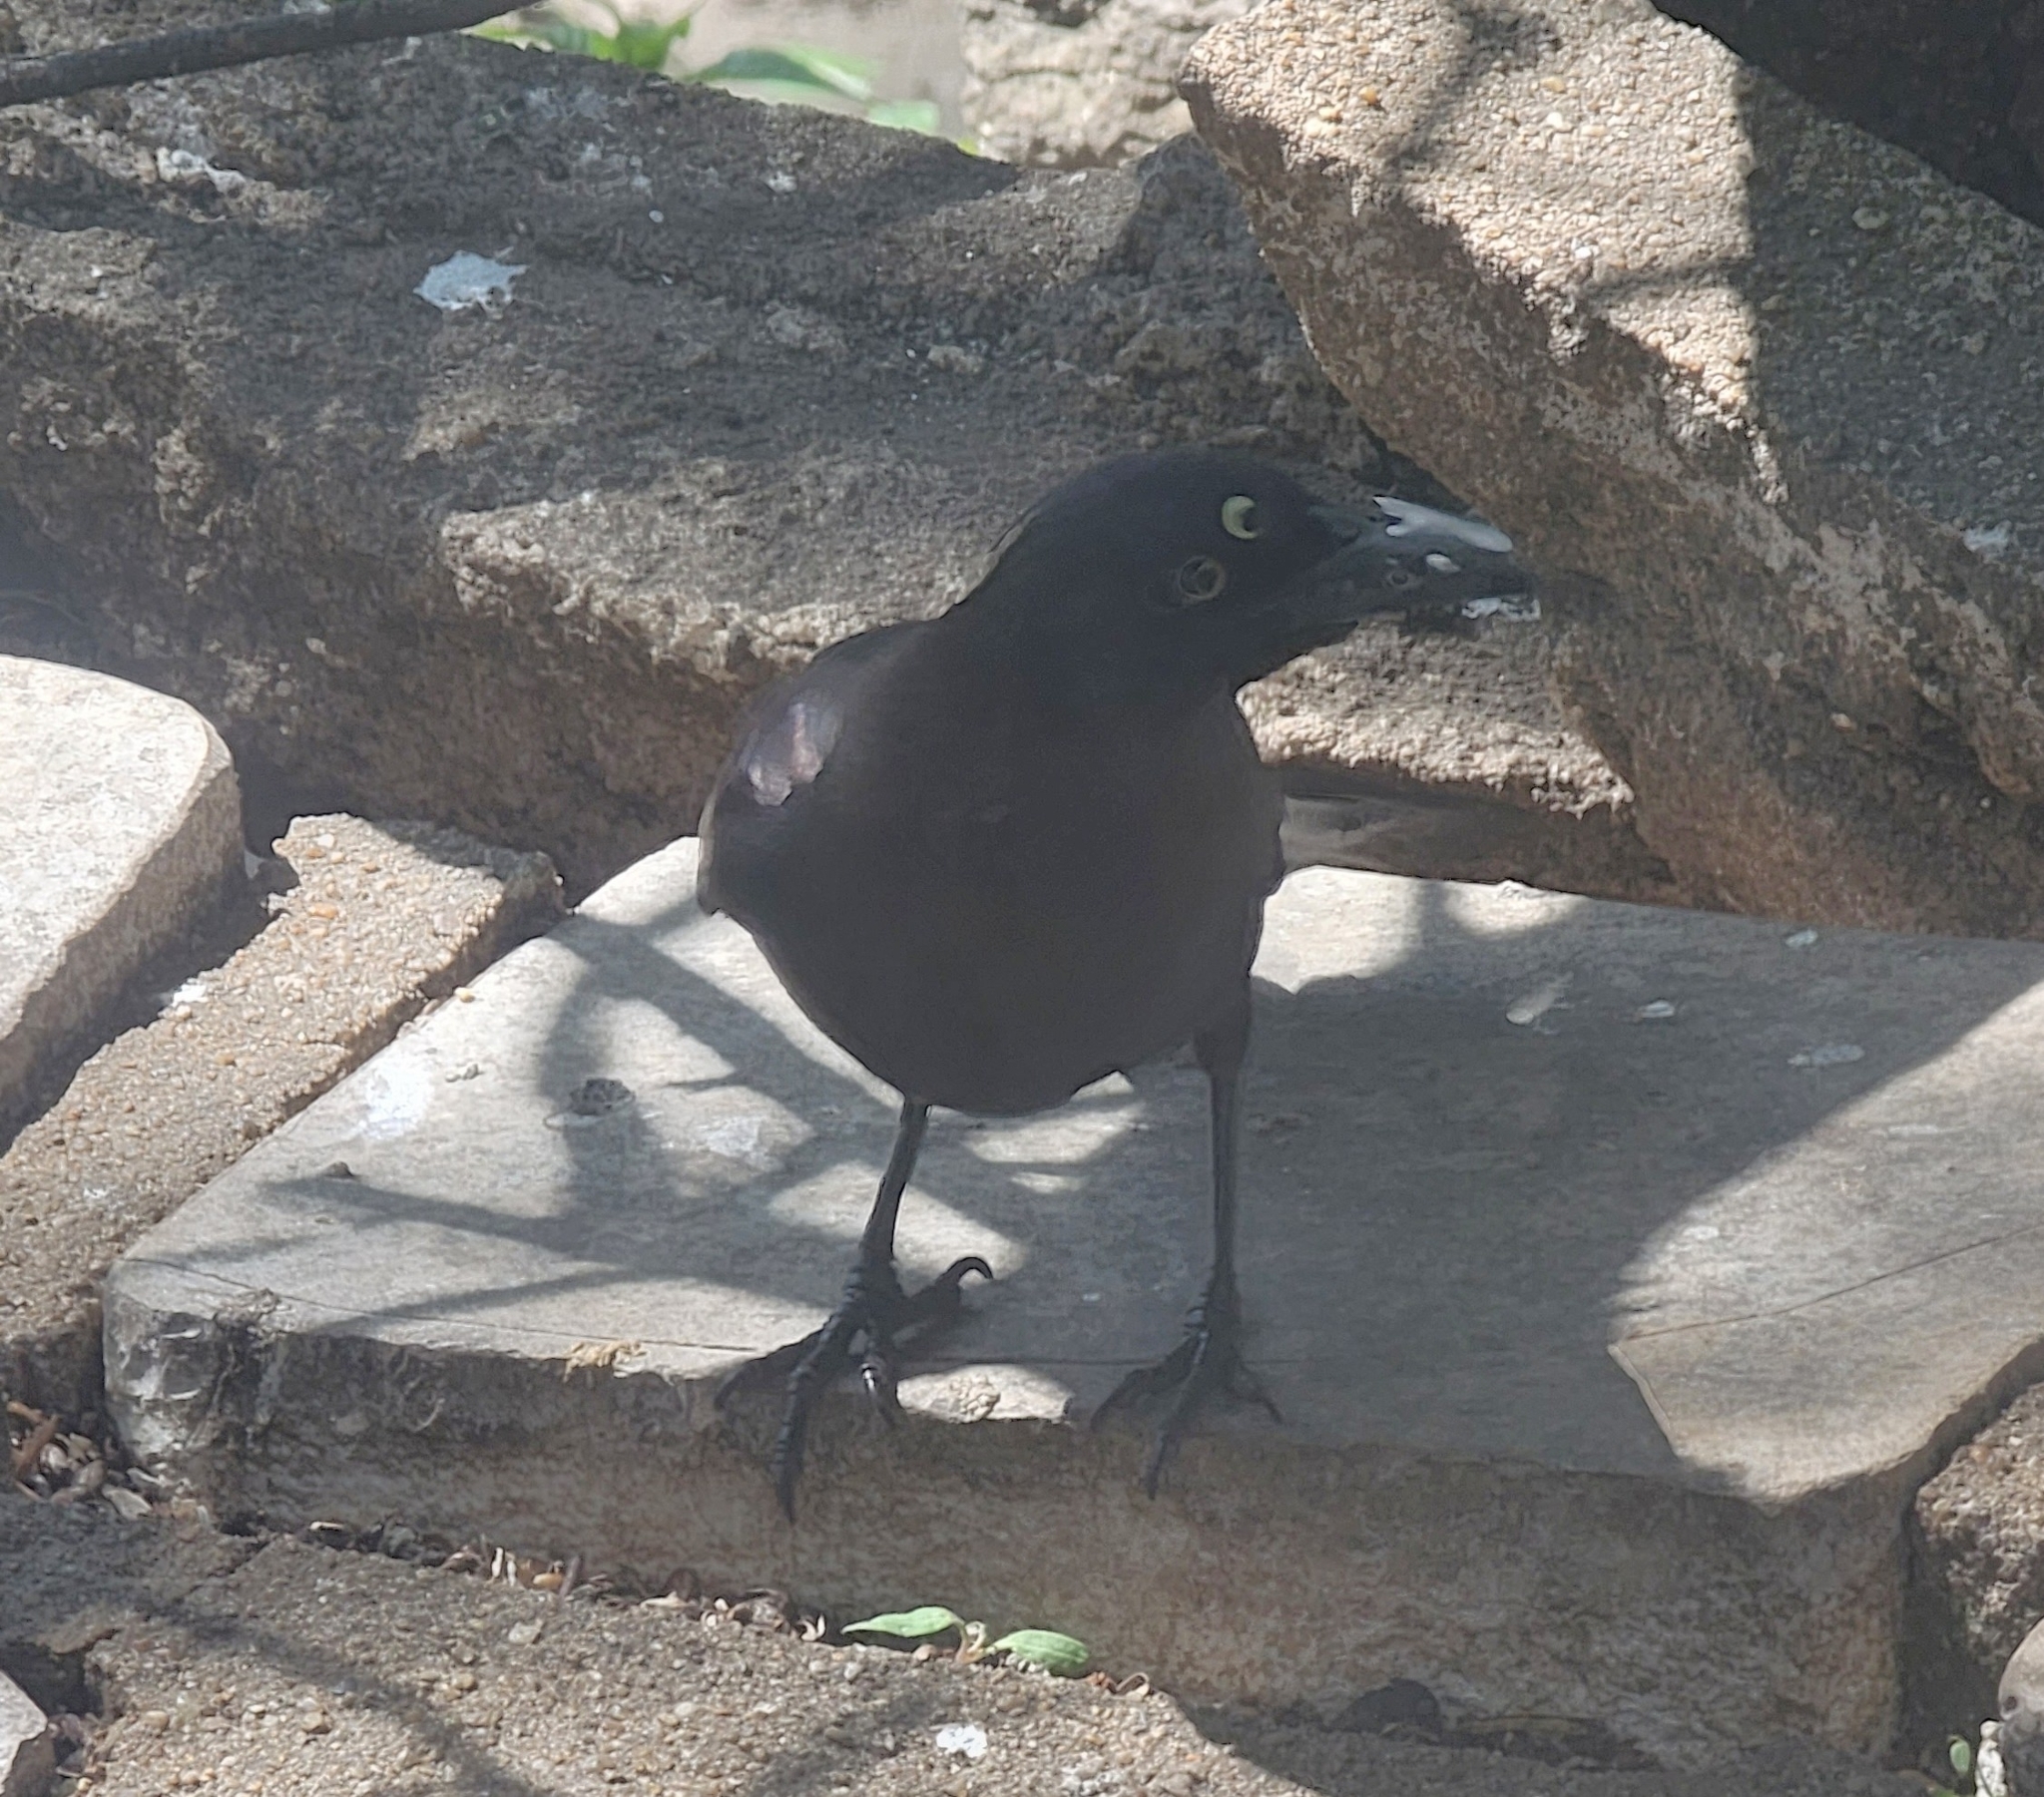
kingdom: Animalia
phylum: Chordata
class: Aves
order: Passeriformes
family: Icteridae
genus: Quiscalus
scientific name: Quiscalus quiscula
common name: Common grackle
